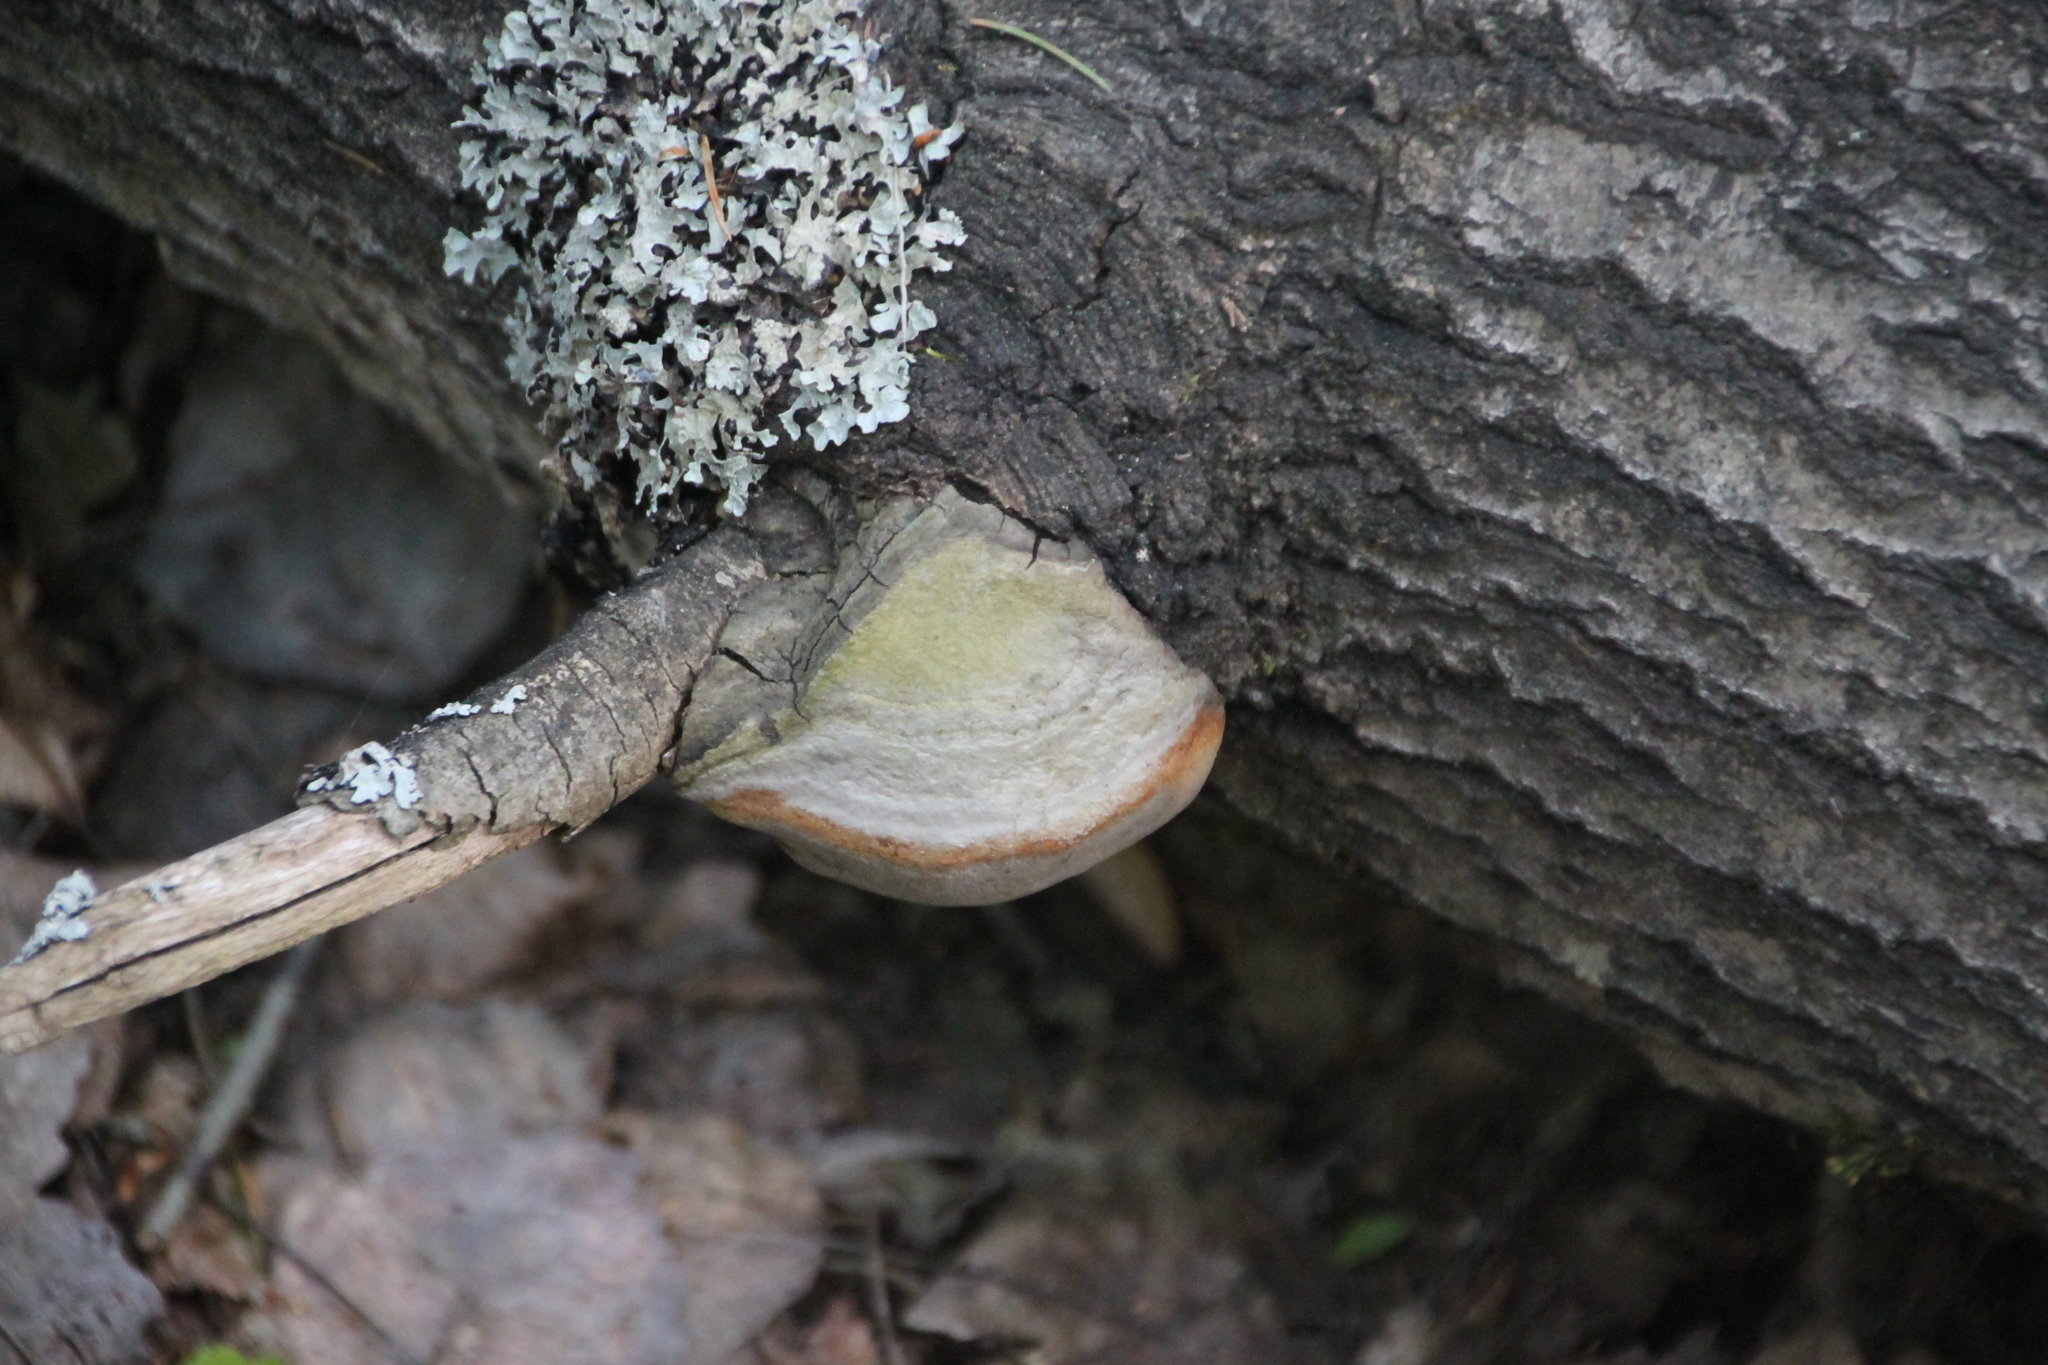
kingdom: Fungi
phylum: Basidiomycota
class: Agaricomycetes
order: Hymenochaetales
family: Hymenochaetaceae
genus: Phellinus
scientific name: Phellinus tremulae
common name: Aspen bracket
